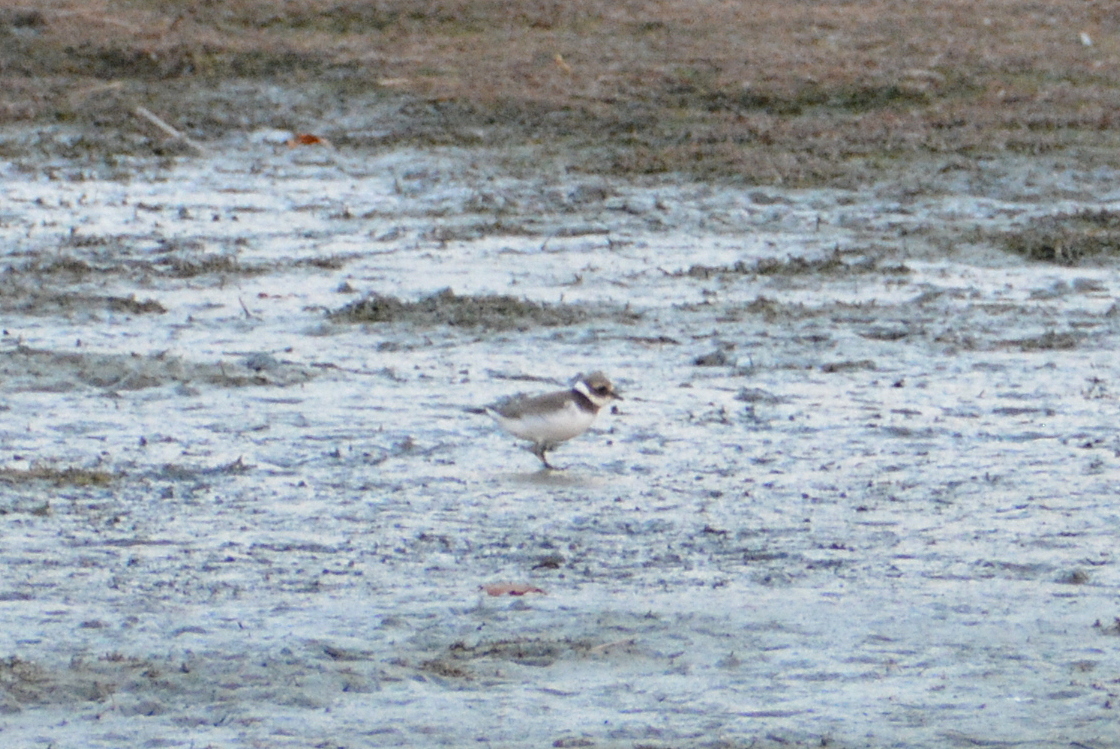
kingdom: Animalia
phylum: Chordata
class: Aves
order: Charadriiformes
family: Charadriidae
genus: Charadrius
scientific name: Charadrius hiaticula
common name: Common ringed plover
